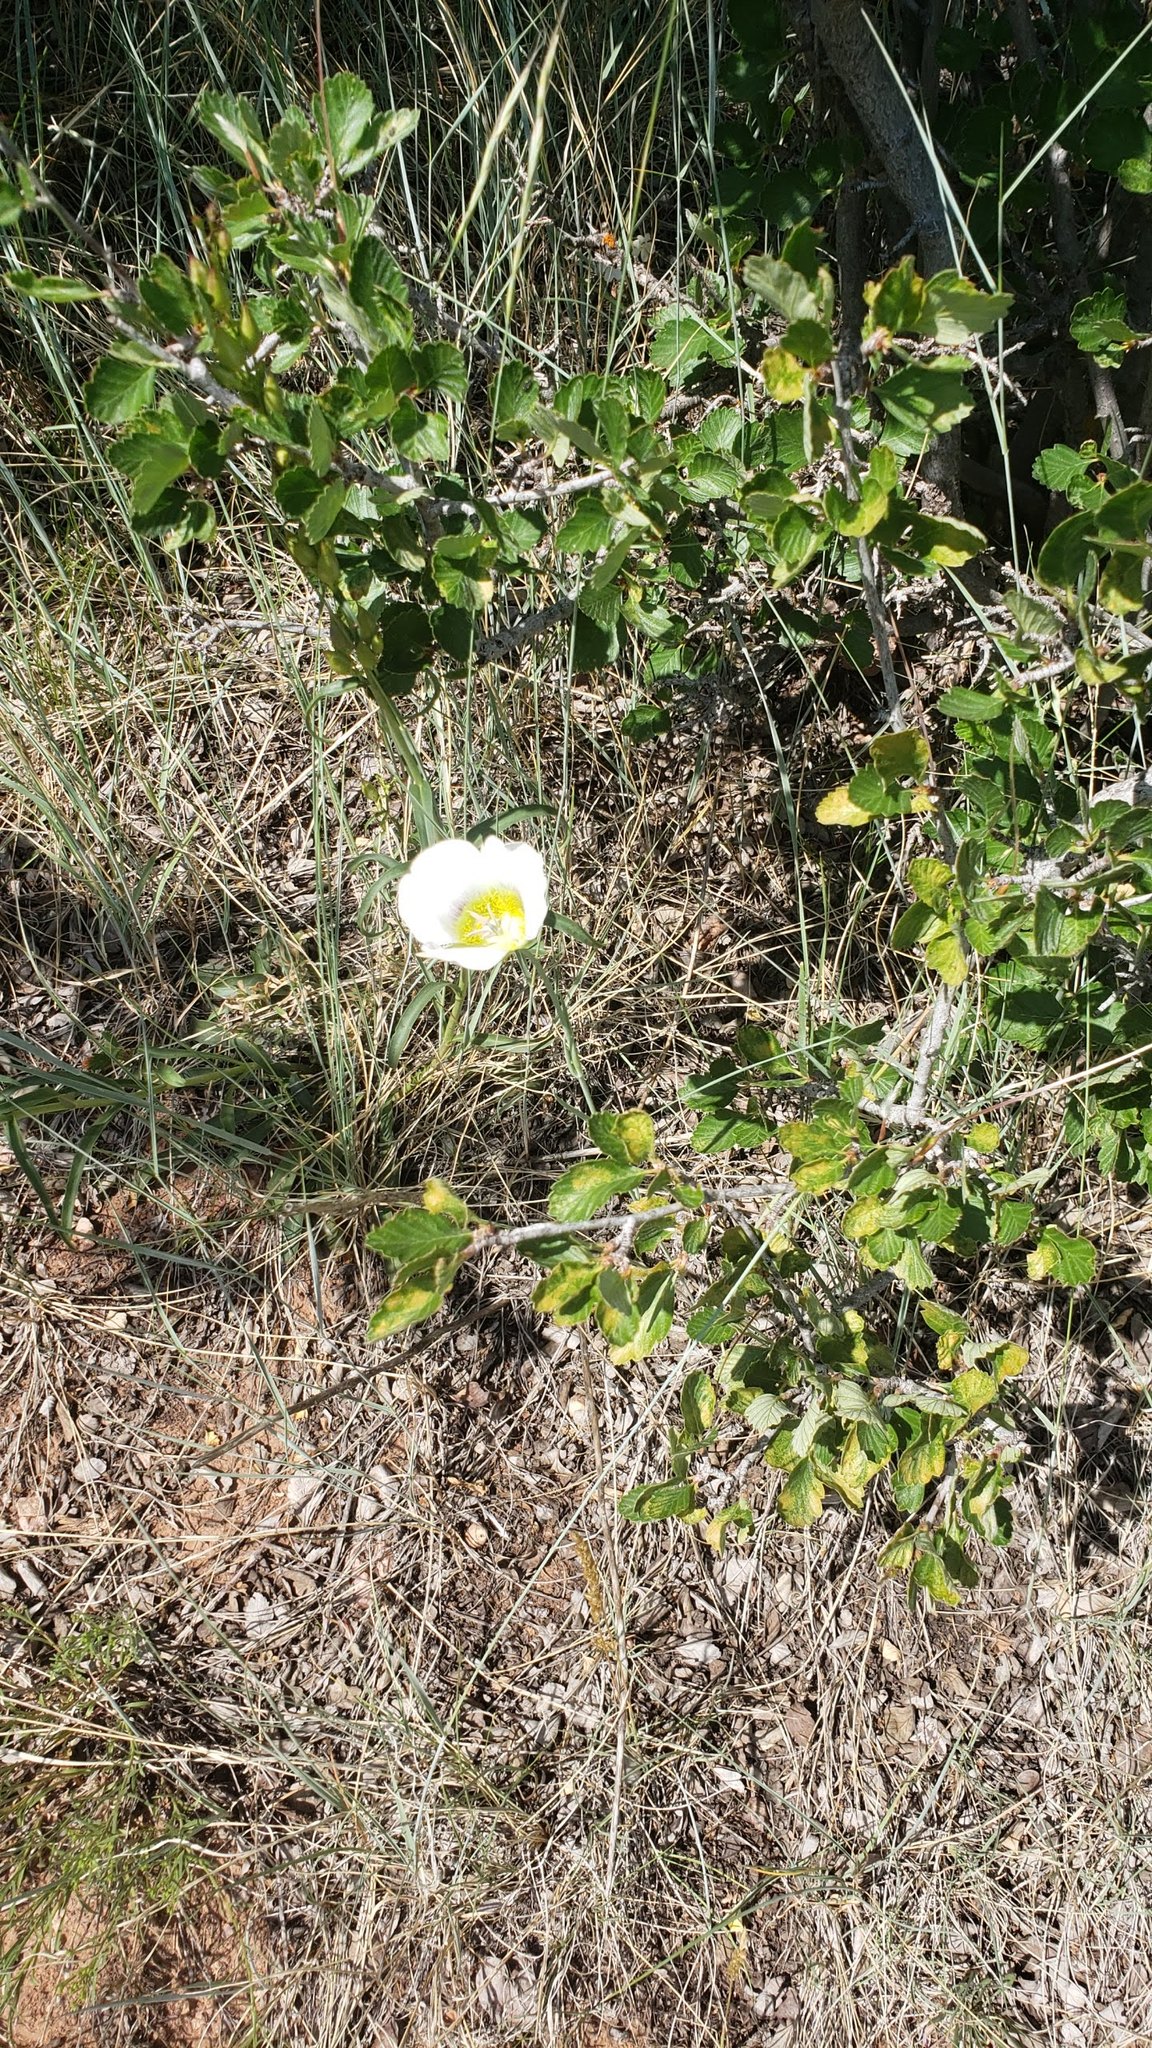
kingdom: Plantae
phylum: Tracheophyta
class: Liliopsida
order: Liliales
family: Liliaceae
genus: Calochortus
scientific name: Calochortus gunnisonii
